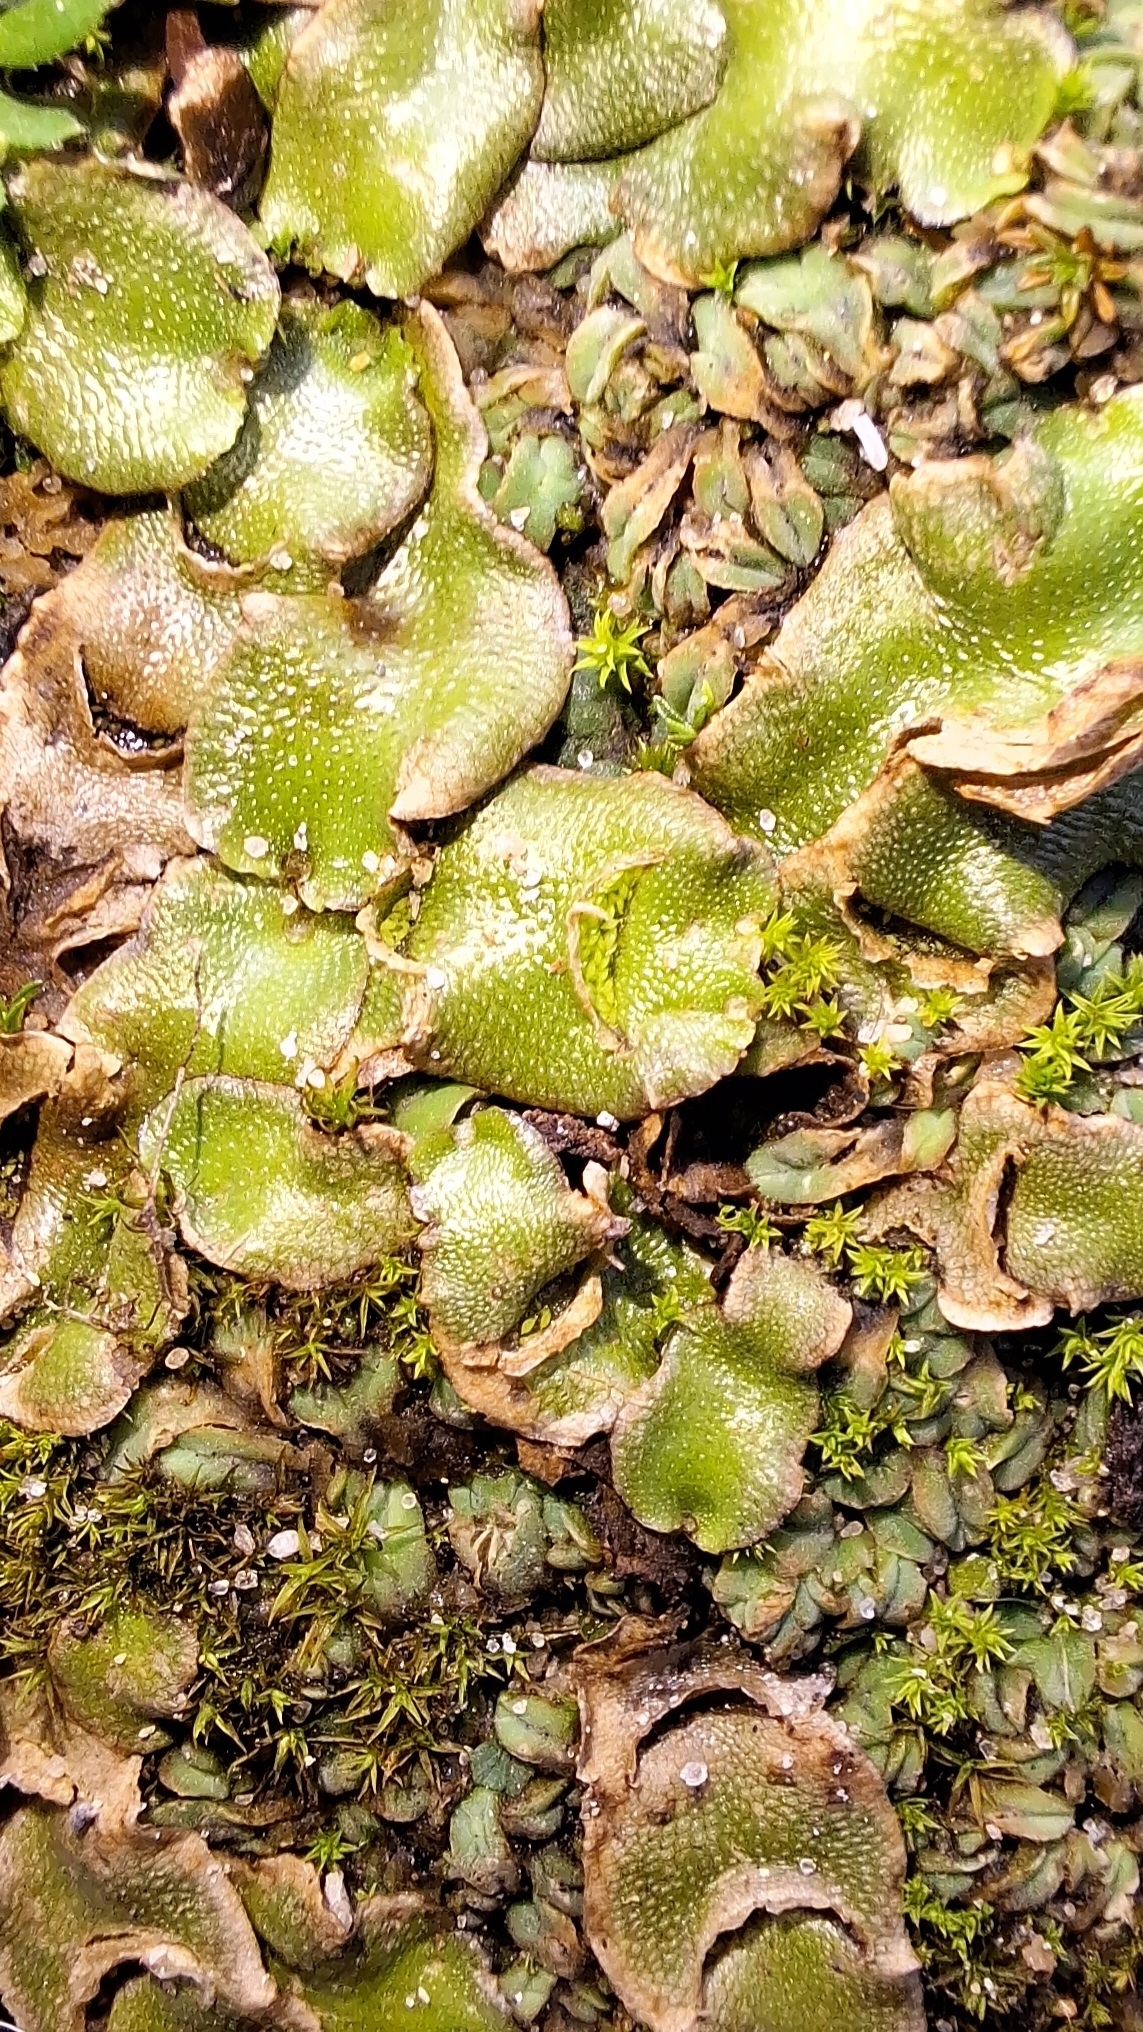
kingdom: Plantae
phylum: Marchantiophyta
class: Marchantiopsida
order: Lunulariales
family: Lunulariaceae
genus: Lunularia
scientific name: Lunularia cruciata
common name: Crescent-cup liverwort
